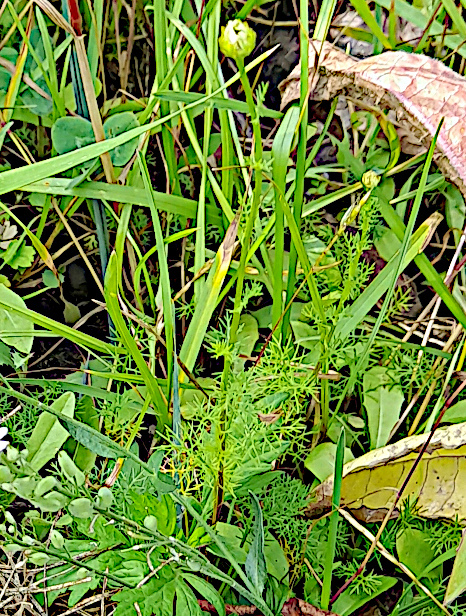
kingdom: Plantae
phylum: Tracheophyta
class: Magnoliopsida
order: Asterales
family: Asteraceae
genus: Tripleurospermum
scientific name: Tripleurospermum inodorum
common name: Scentless mayweed
